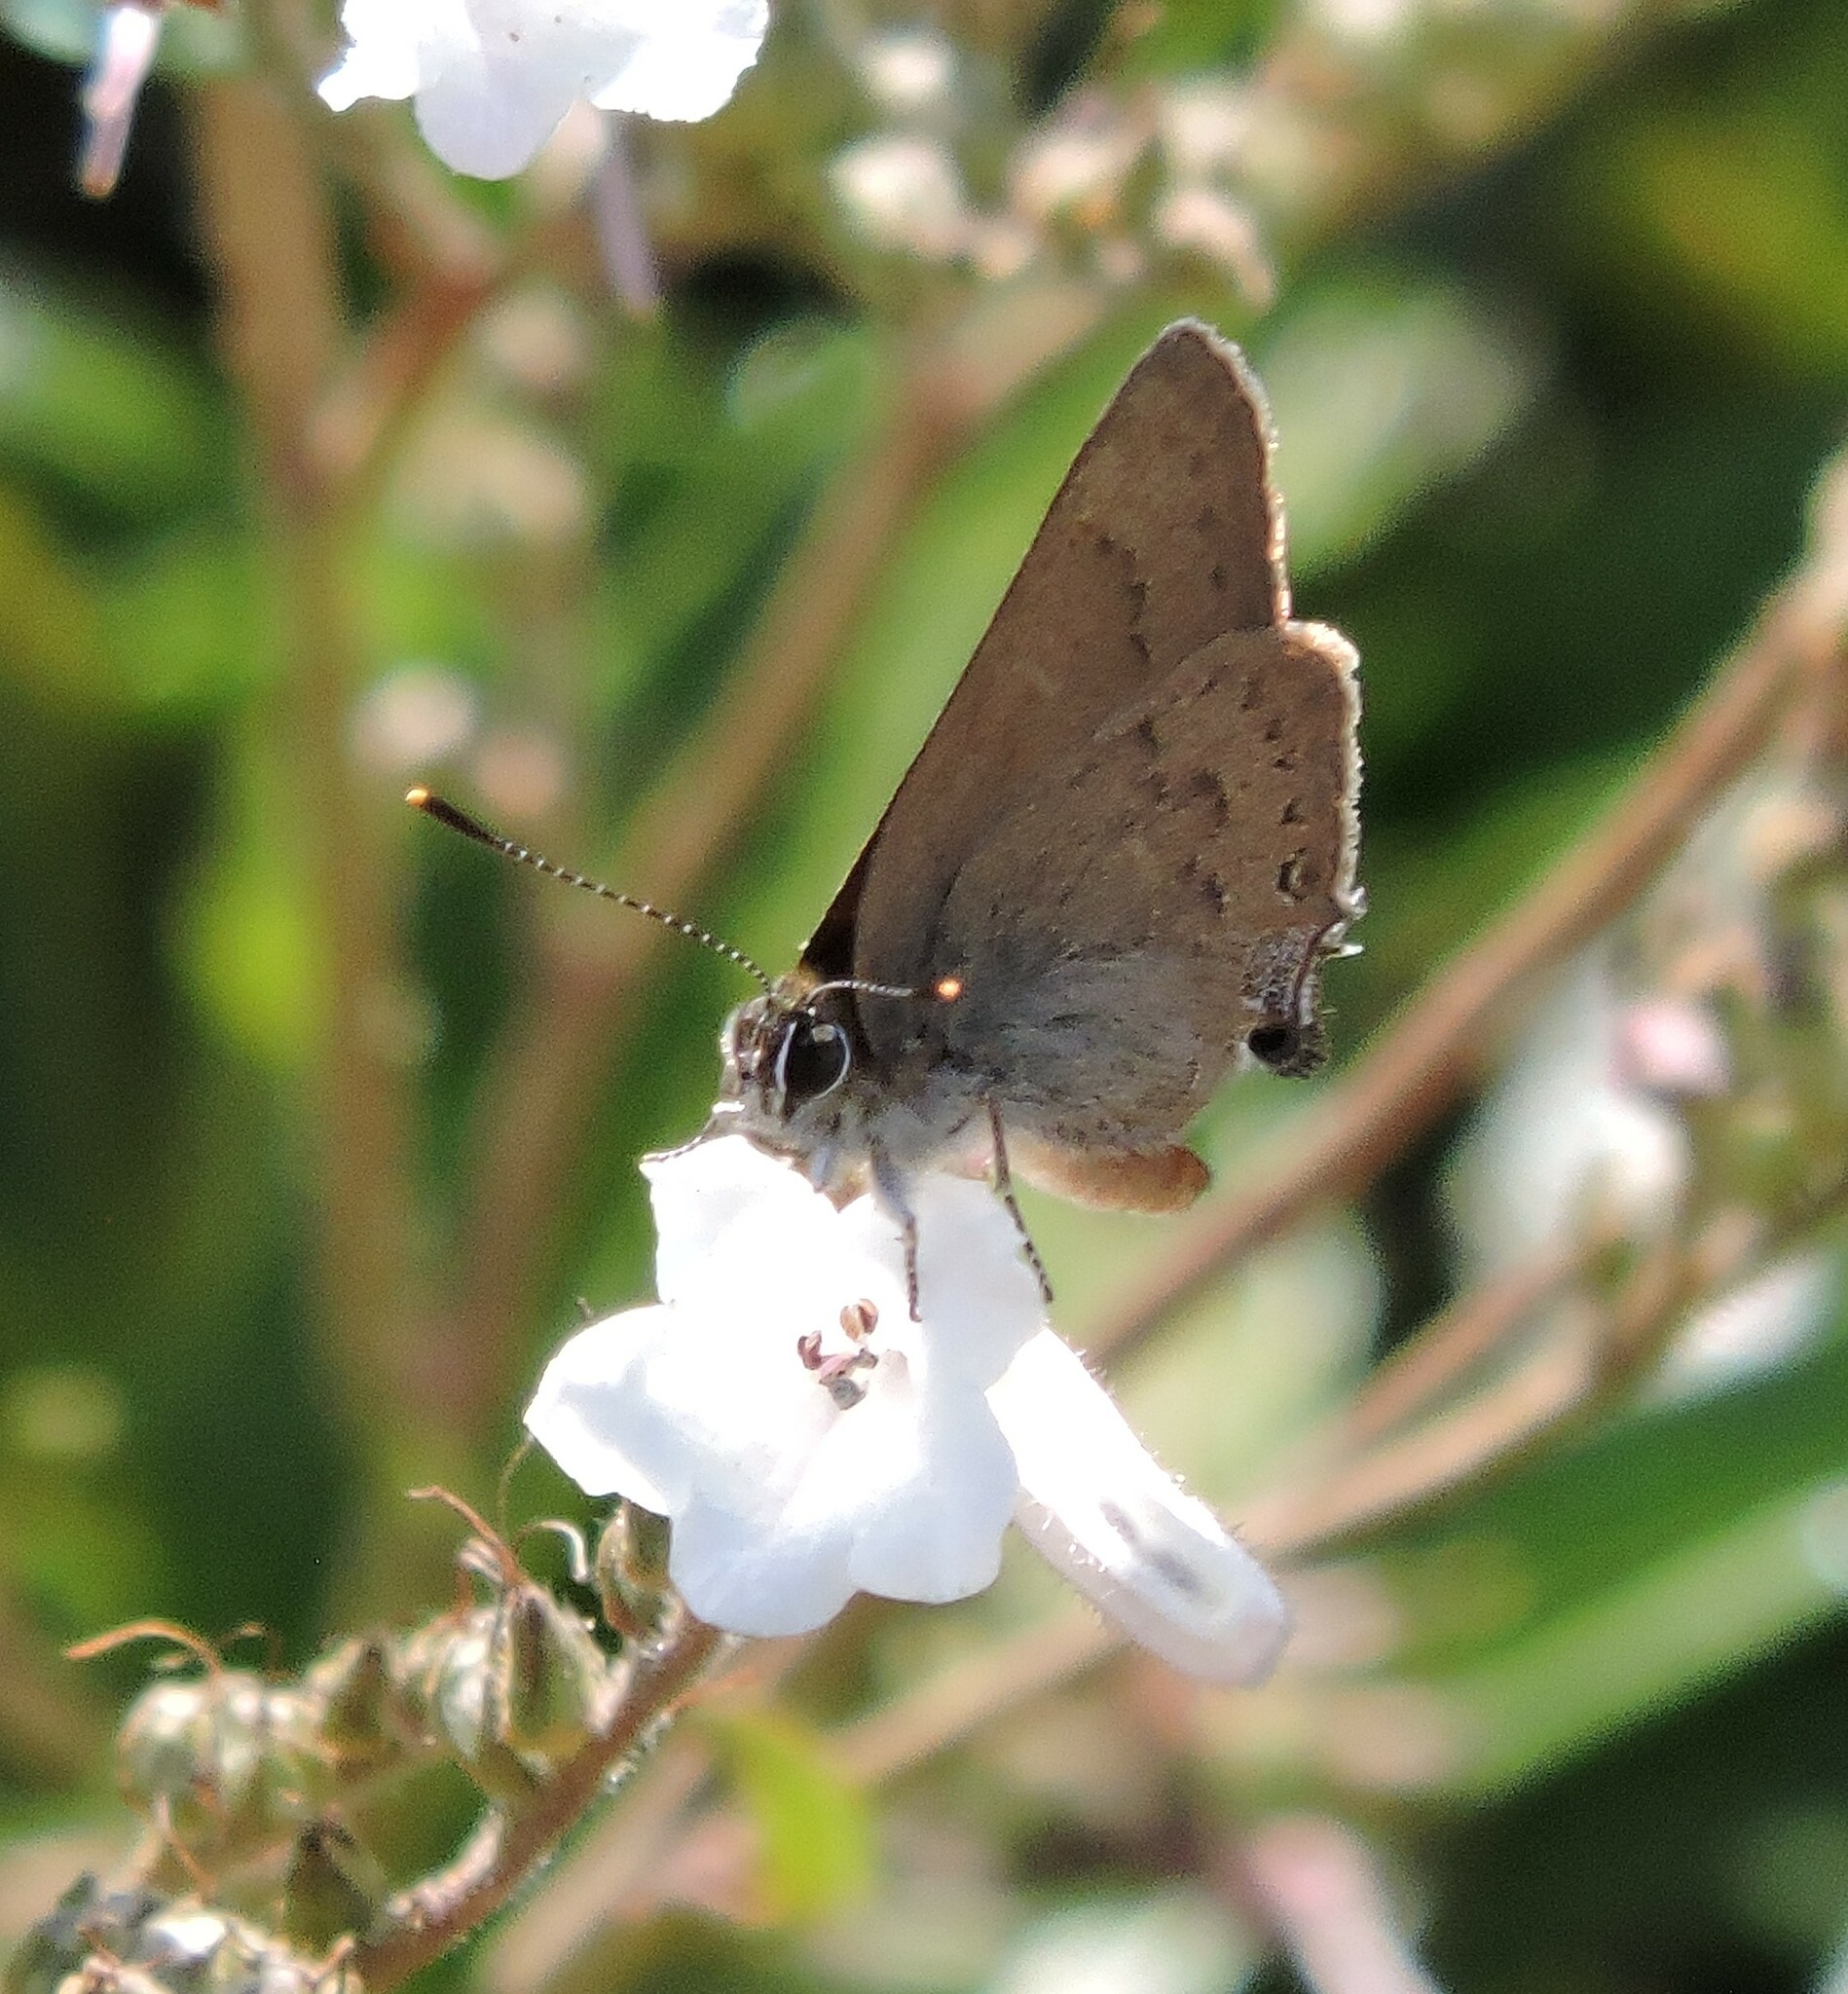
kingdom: Animalia
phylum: Arthropoda
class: Insecta
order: Lepidoptera
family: Lycaenidae
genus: Strymon
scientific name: Strymon saepium
